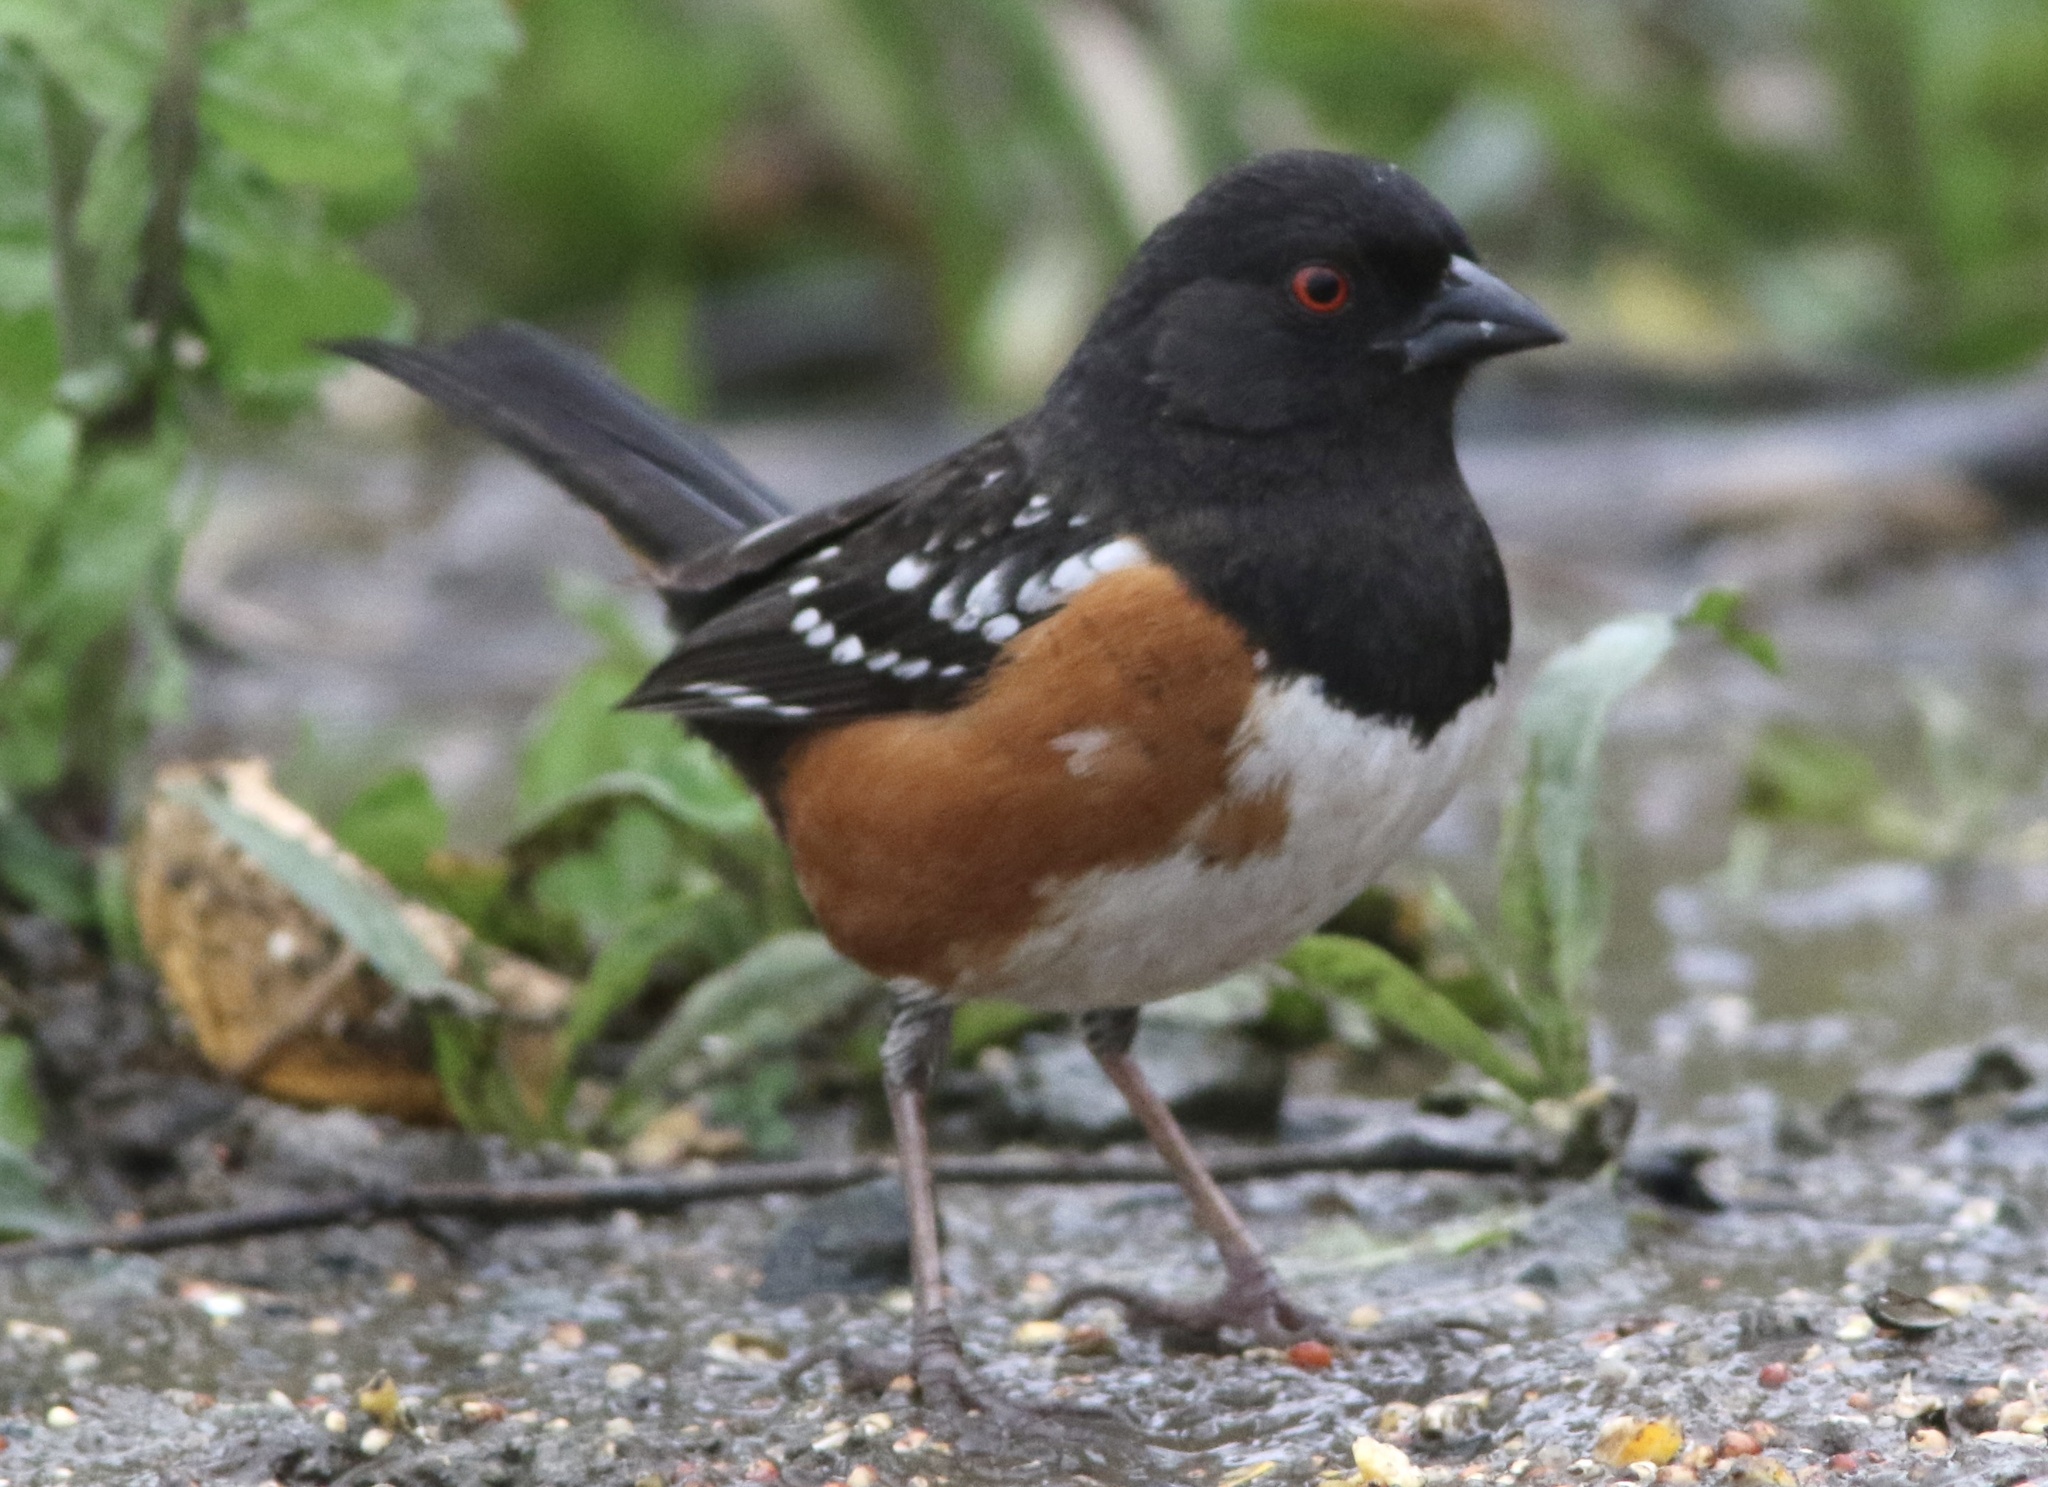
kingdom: Animalia
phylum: Chordata
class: Aves
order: Passeriformes
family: Passerellidae
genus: Pipilo
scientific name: Pipilo maculatus
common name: Spotted towhee
